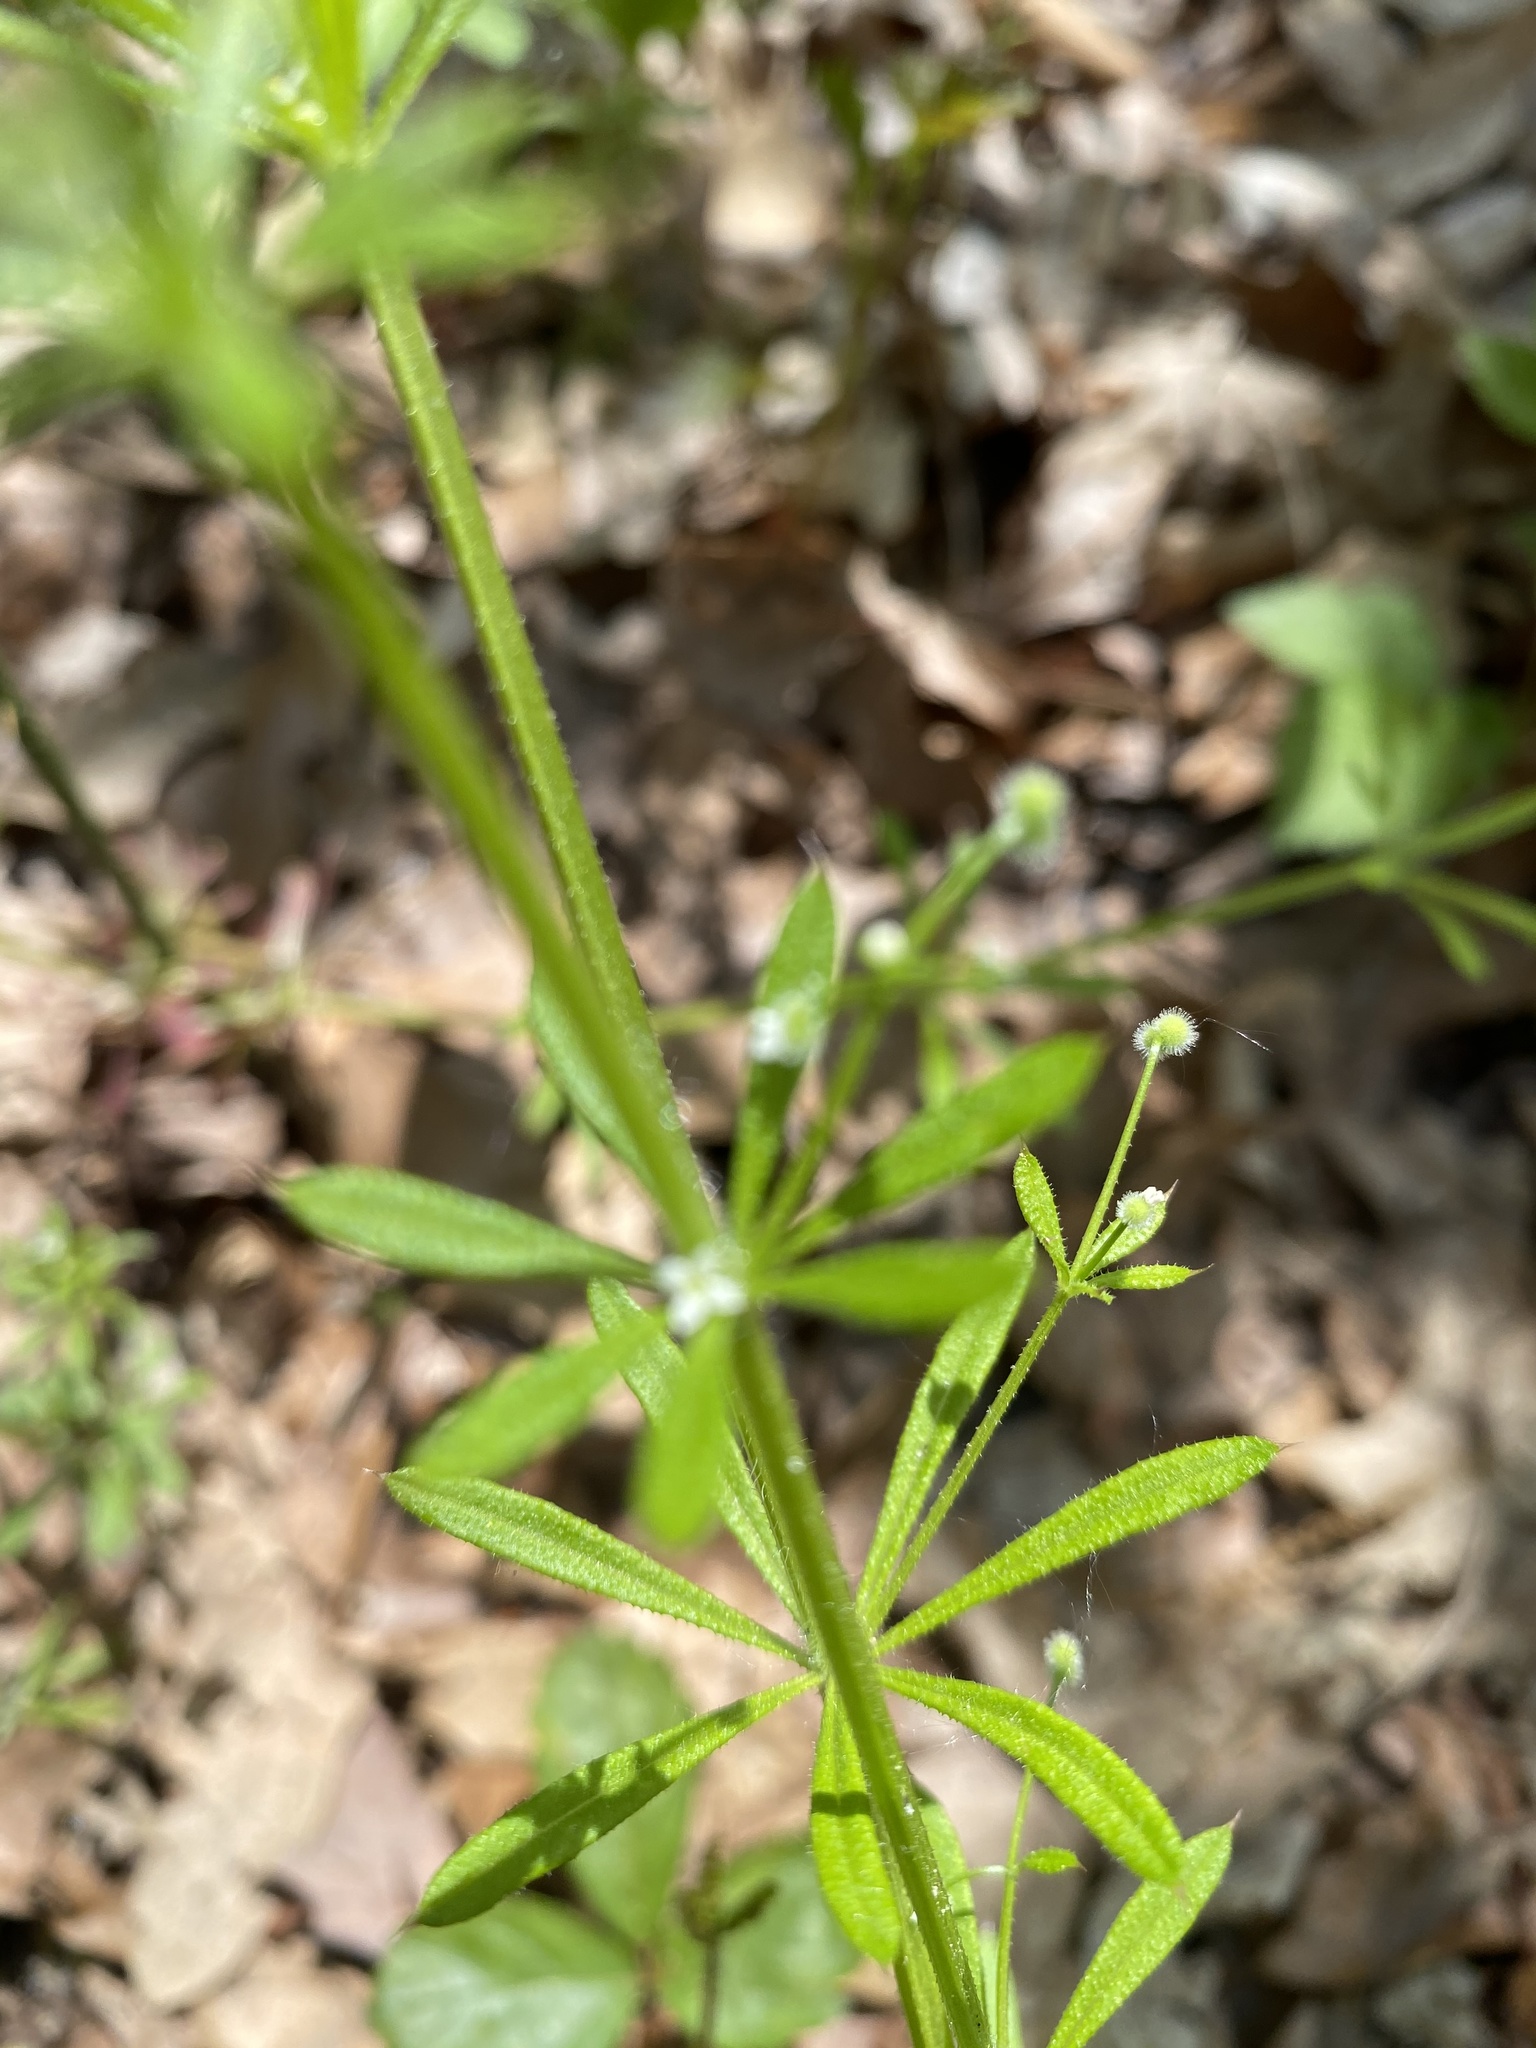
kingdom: Plantae
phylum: Tracheophyta
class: Magnoliopsida
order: Gentianales
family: Rubiaceae
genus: Galium
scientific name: Galium aparine
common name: Cleavers
